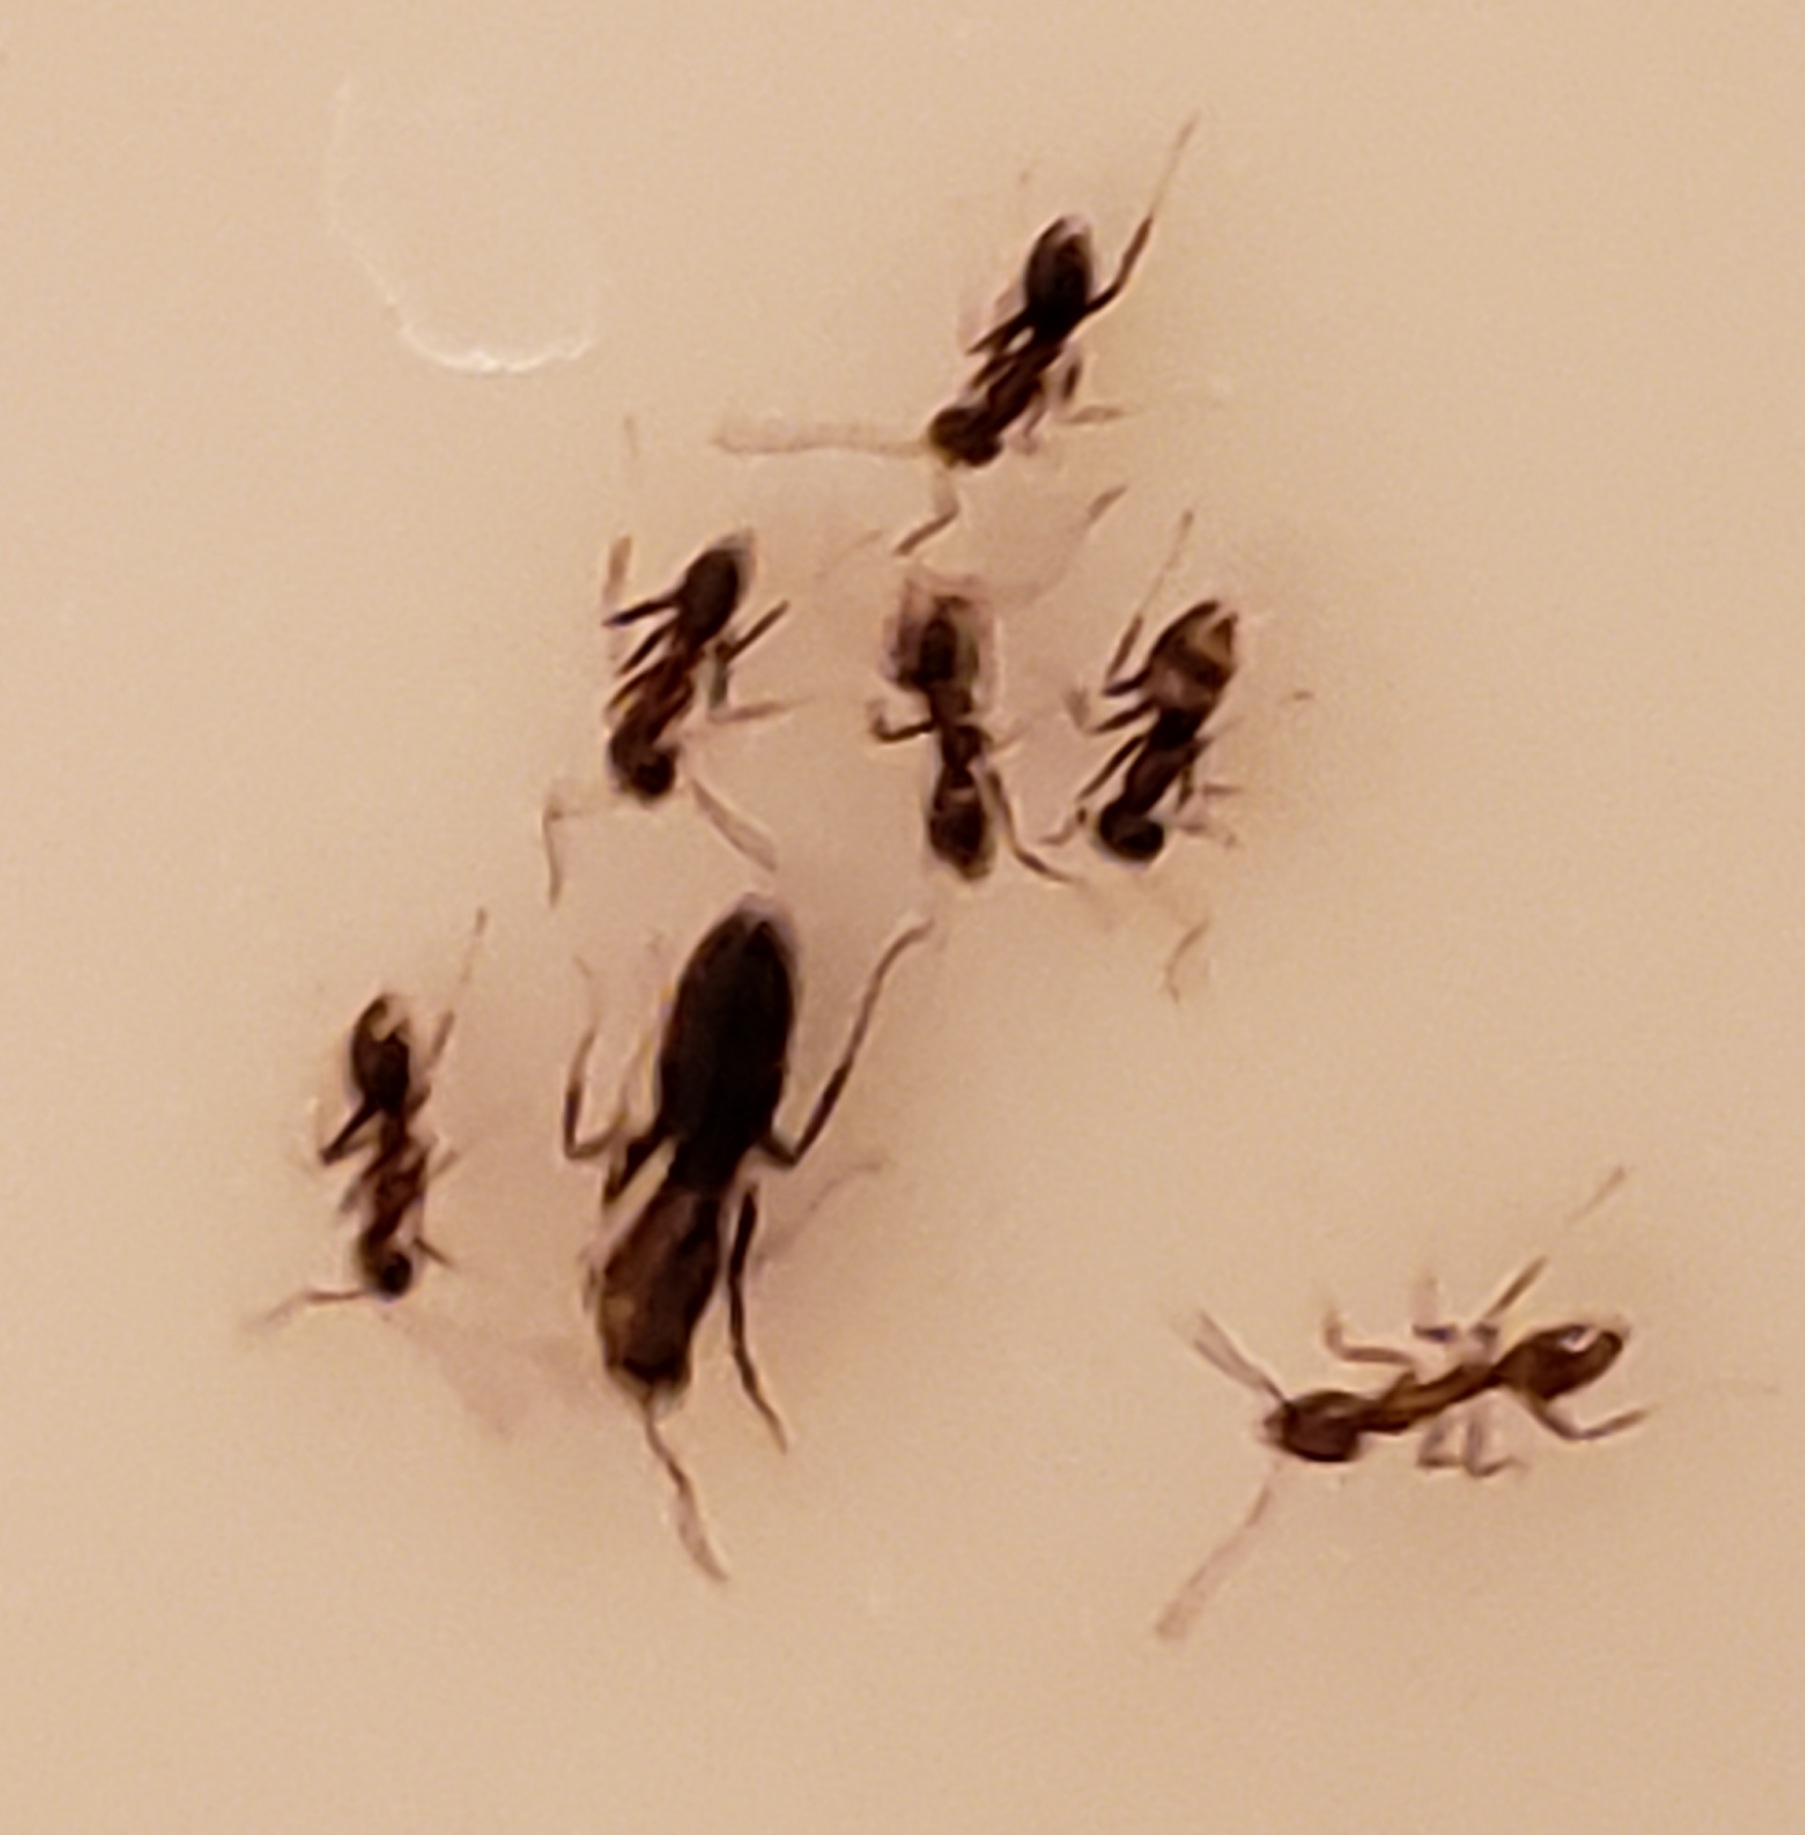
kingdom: Animalia
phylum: Arthropoda
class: Insecta
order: Hymenoptera
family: Formicidae
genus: Linepithema
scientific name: Linepithema humile
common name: Argentine ant
